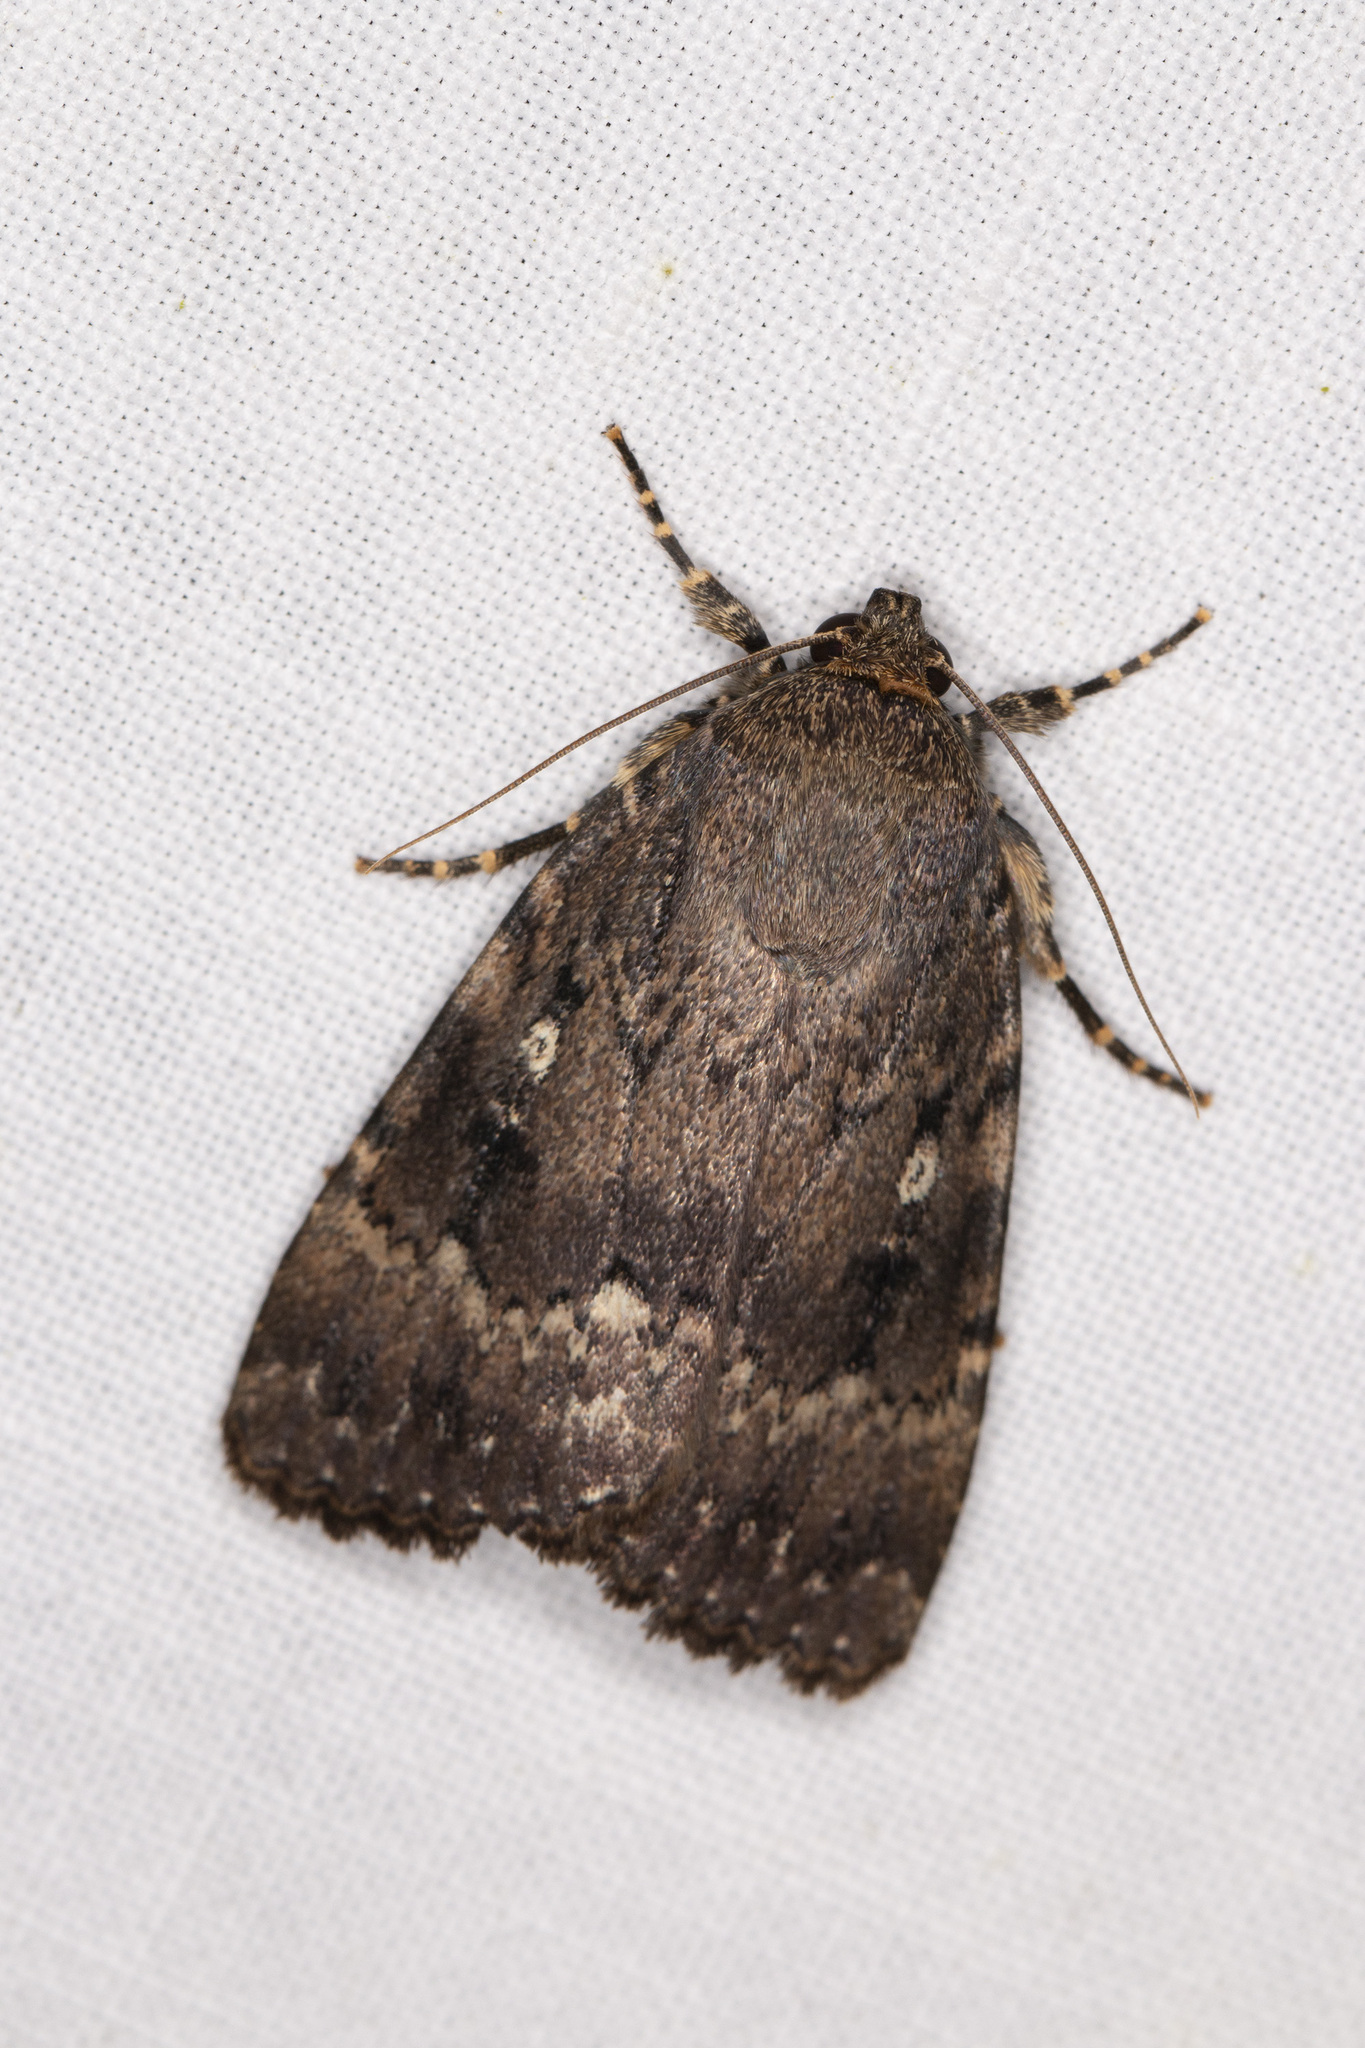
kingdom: Animalia
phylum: Arthropoda
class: Insecta
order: Lepidoptera
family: Noctuidae
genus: Amphipyra
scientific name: Amphipyra pyramidea
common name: Copper underwing
